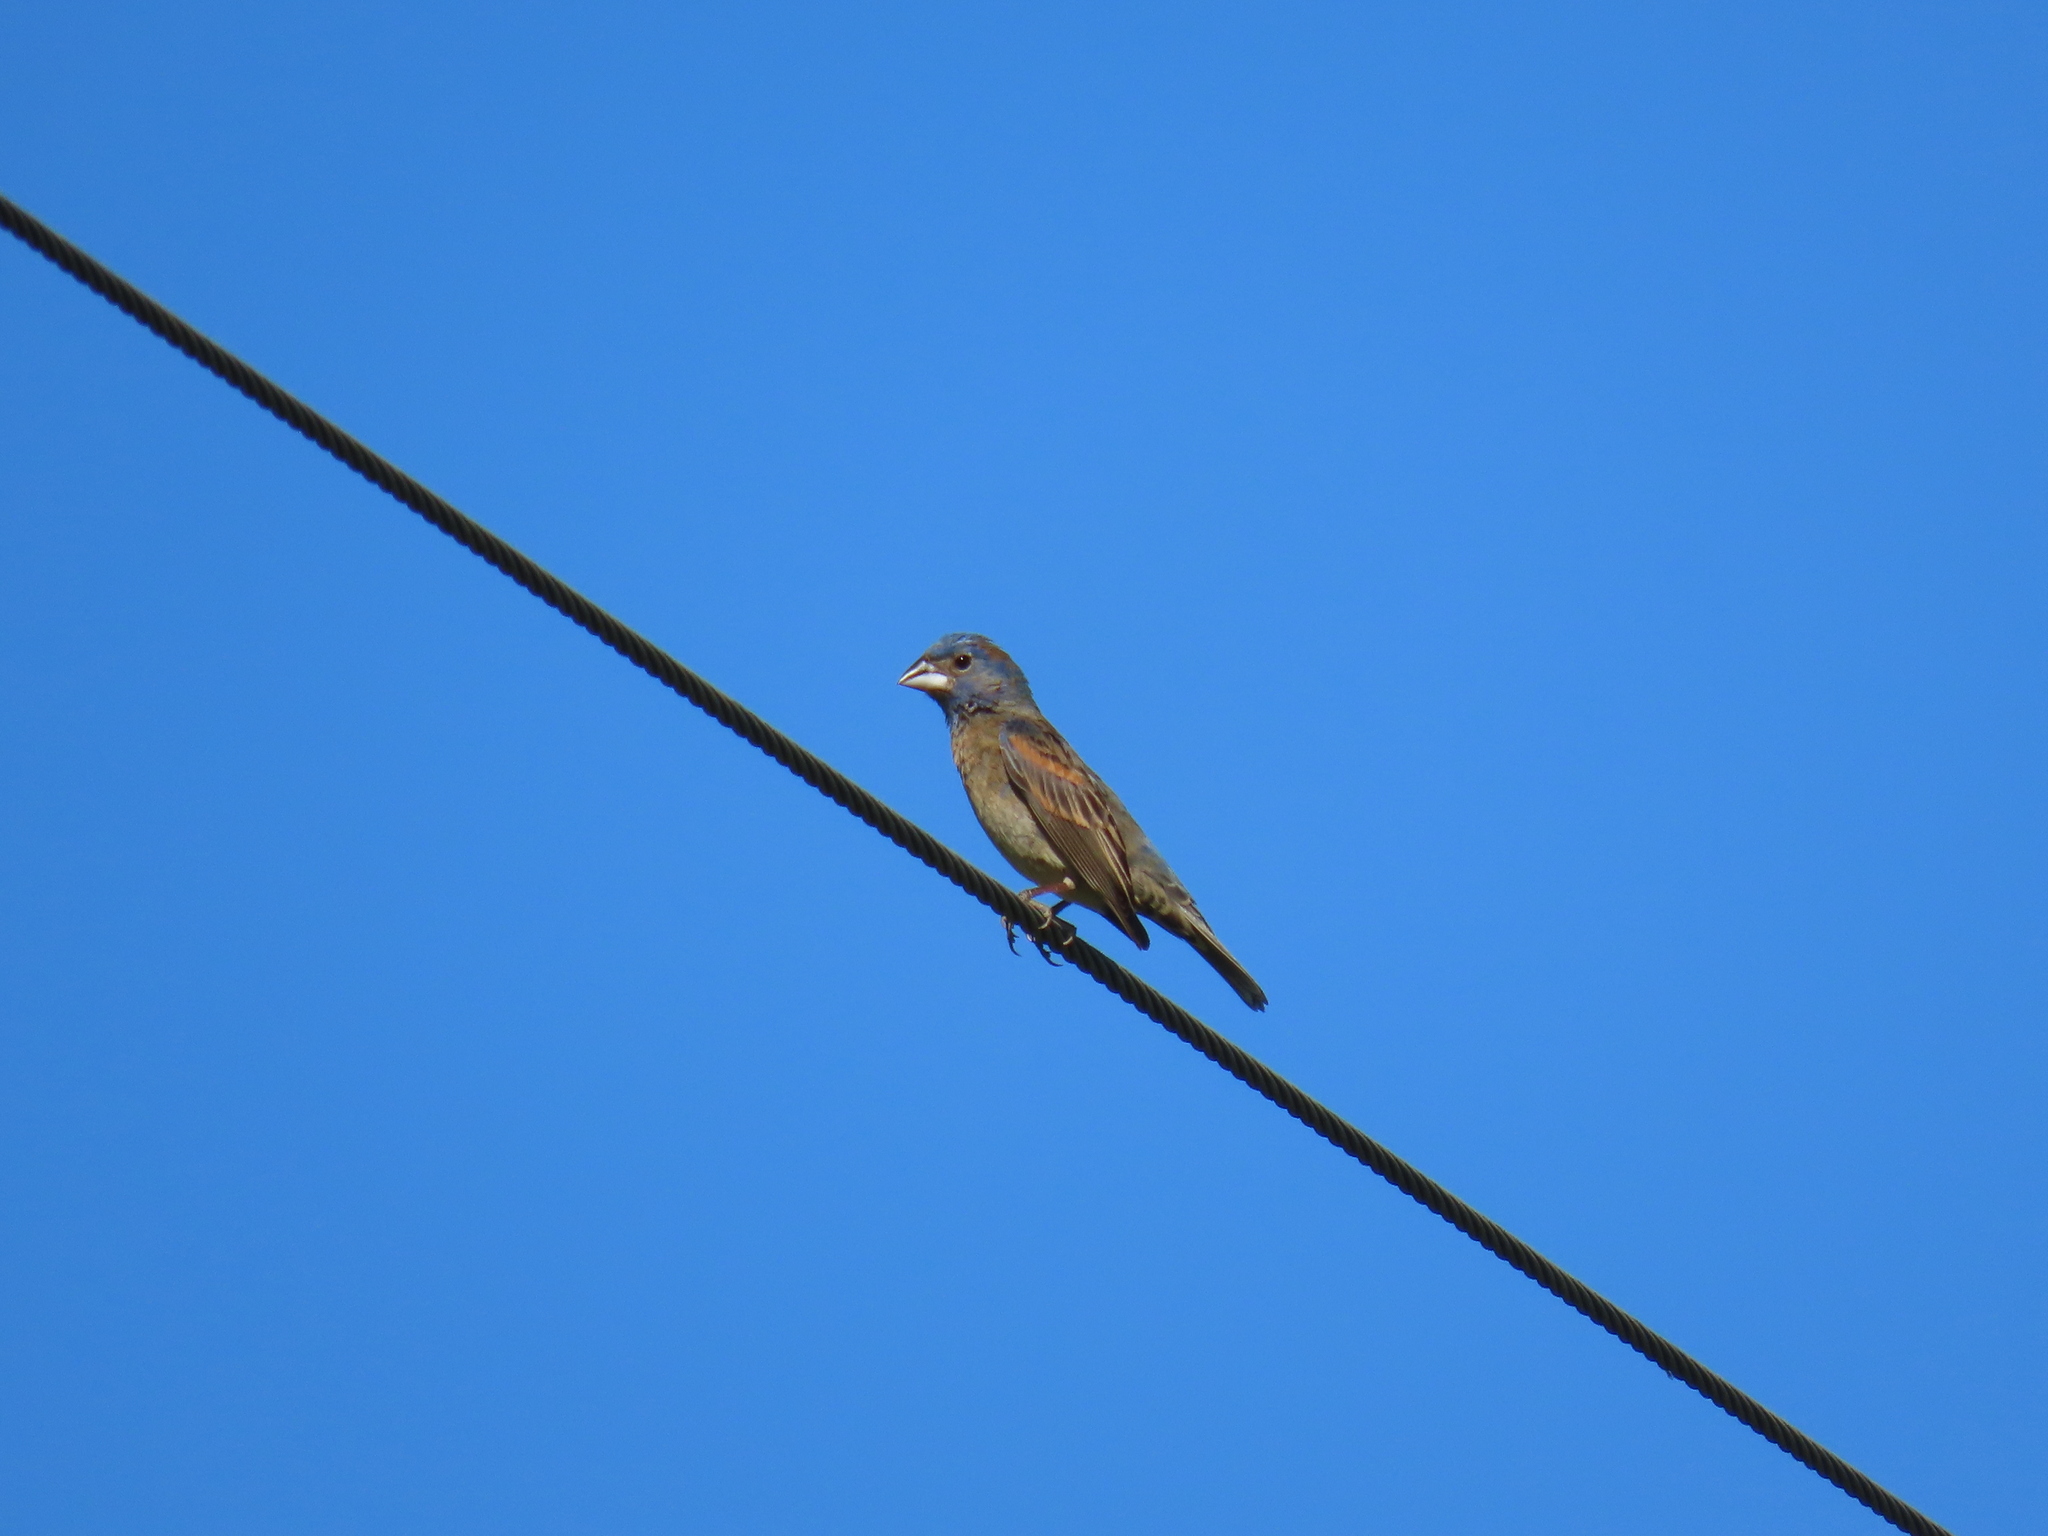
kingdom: Animalia
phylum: Chordata
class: Aves
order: Passeriformes
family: Cardinalidae
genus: Passerina
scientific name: Passerina caerulea
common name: Blue grosbeak
